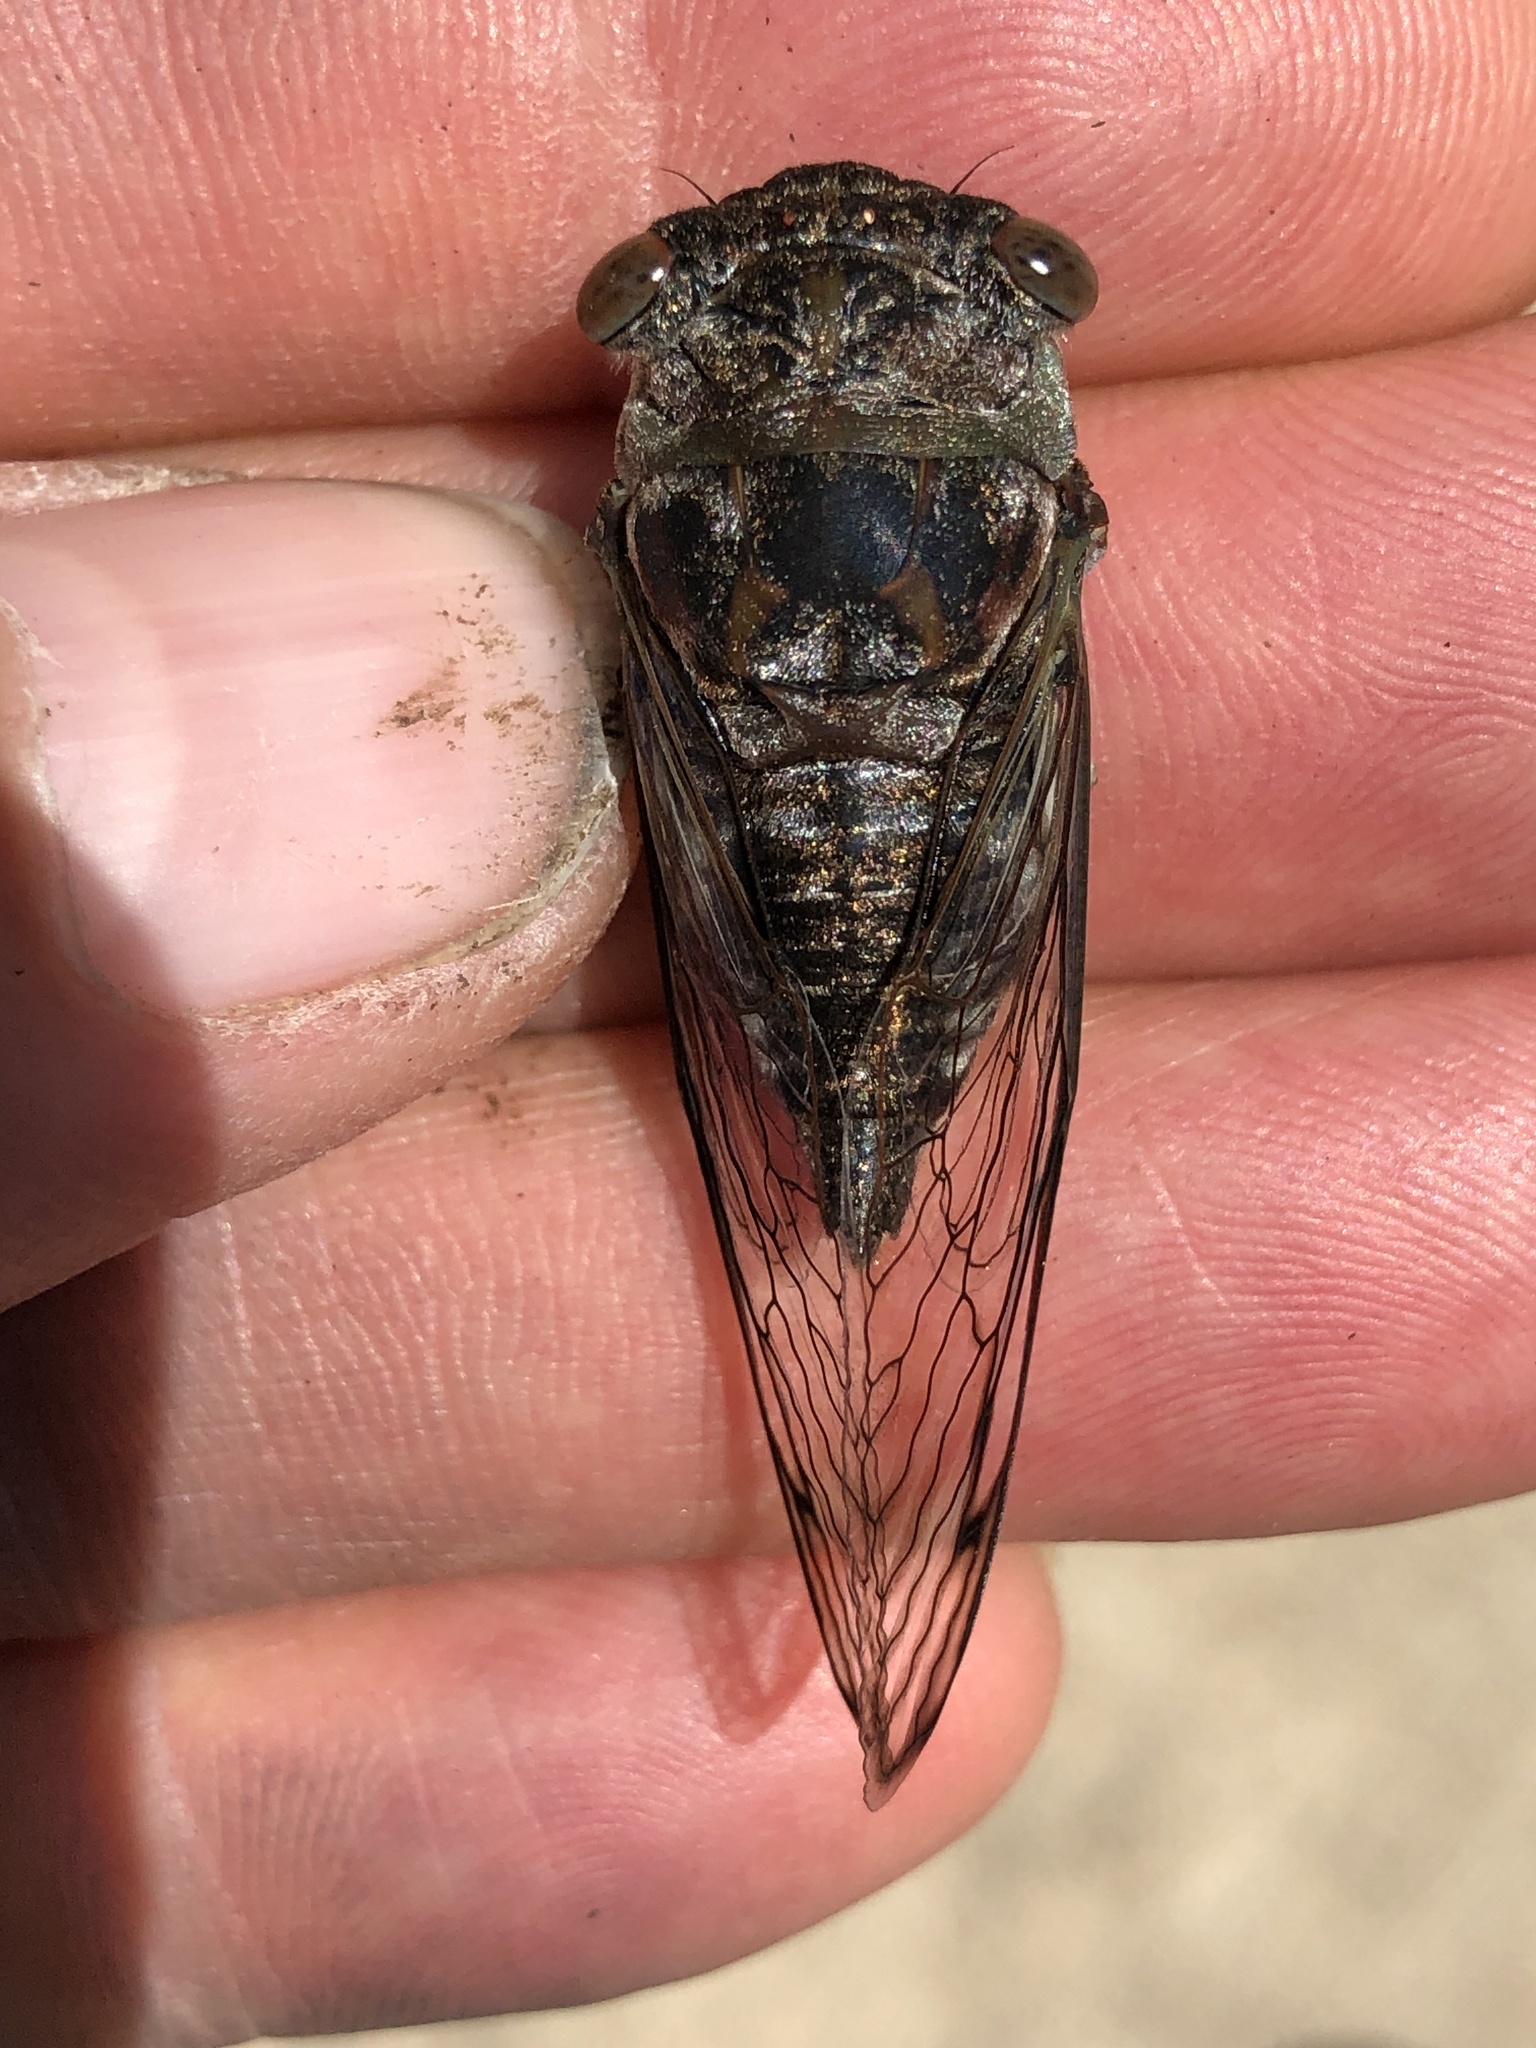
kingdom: Animalia
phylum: Arthropoda
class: Insecta
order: Hemiptera
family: Cicadidae
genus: Neotibicen
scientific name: Neotibicen davisi
